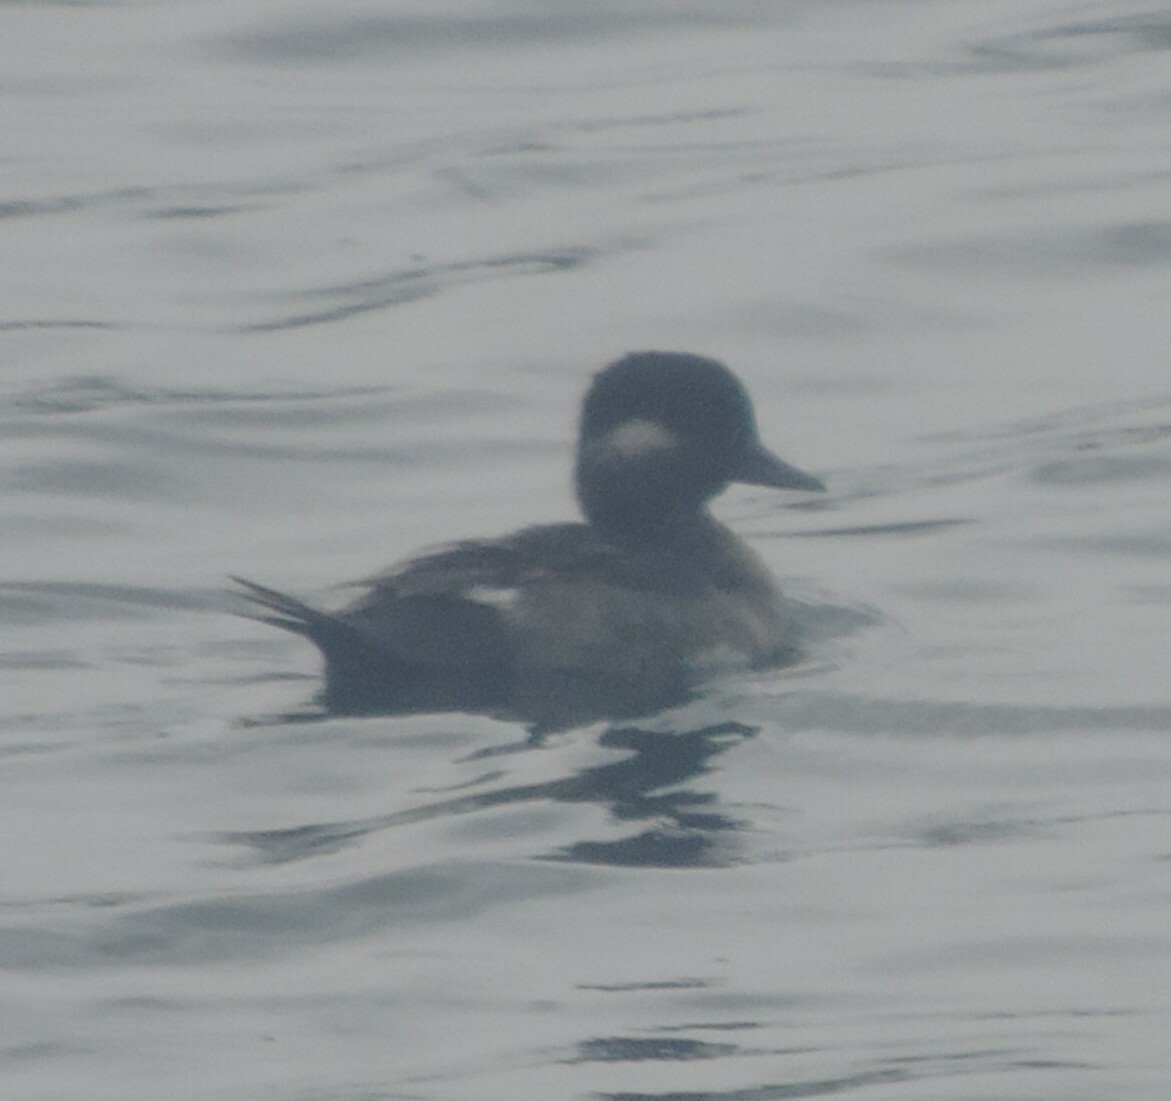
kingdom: Animalia
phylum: Chordata
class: Aves
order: Anseriformes
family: Anatidae
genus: Bucephala
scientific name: Bucephala albeola
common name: Bufflehead
